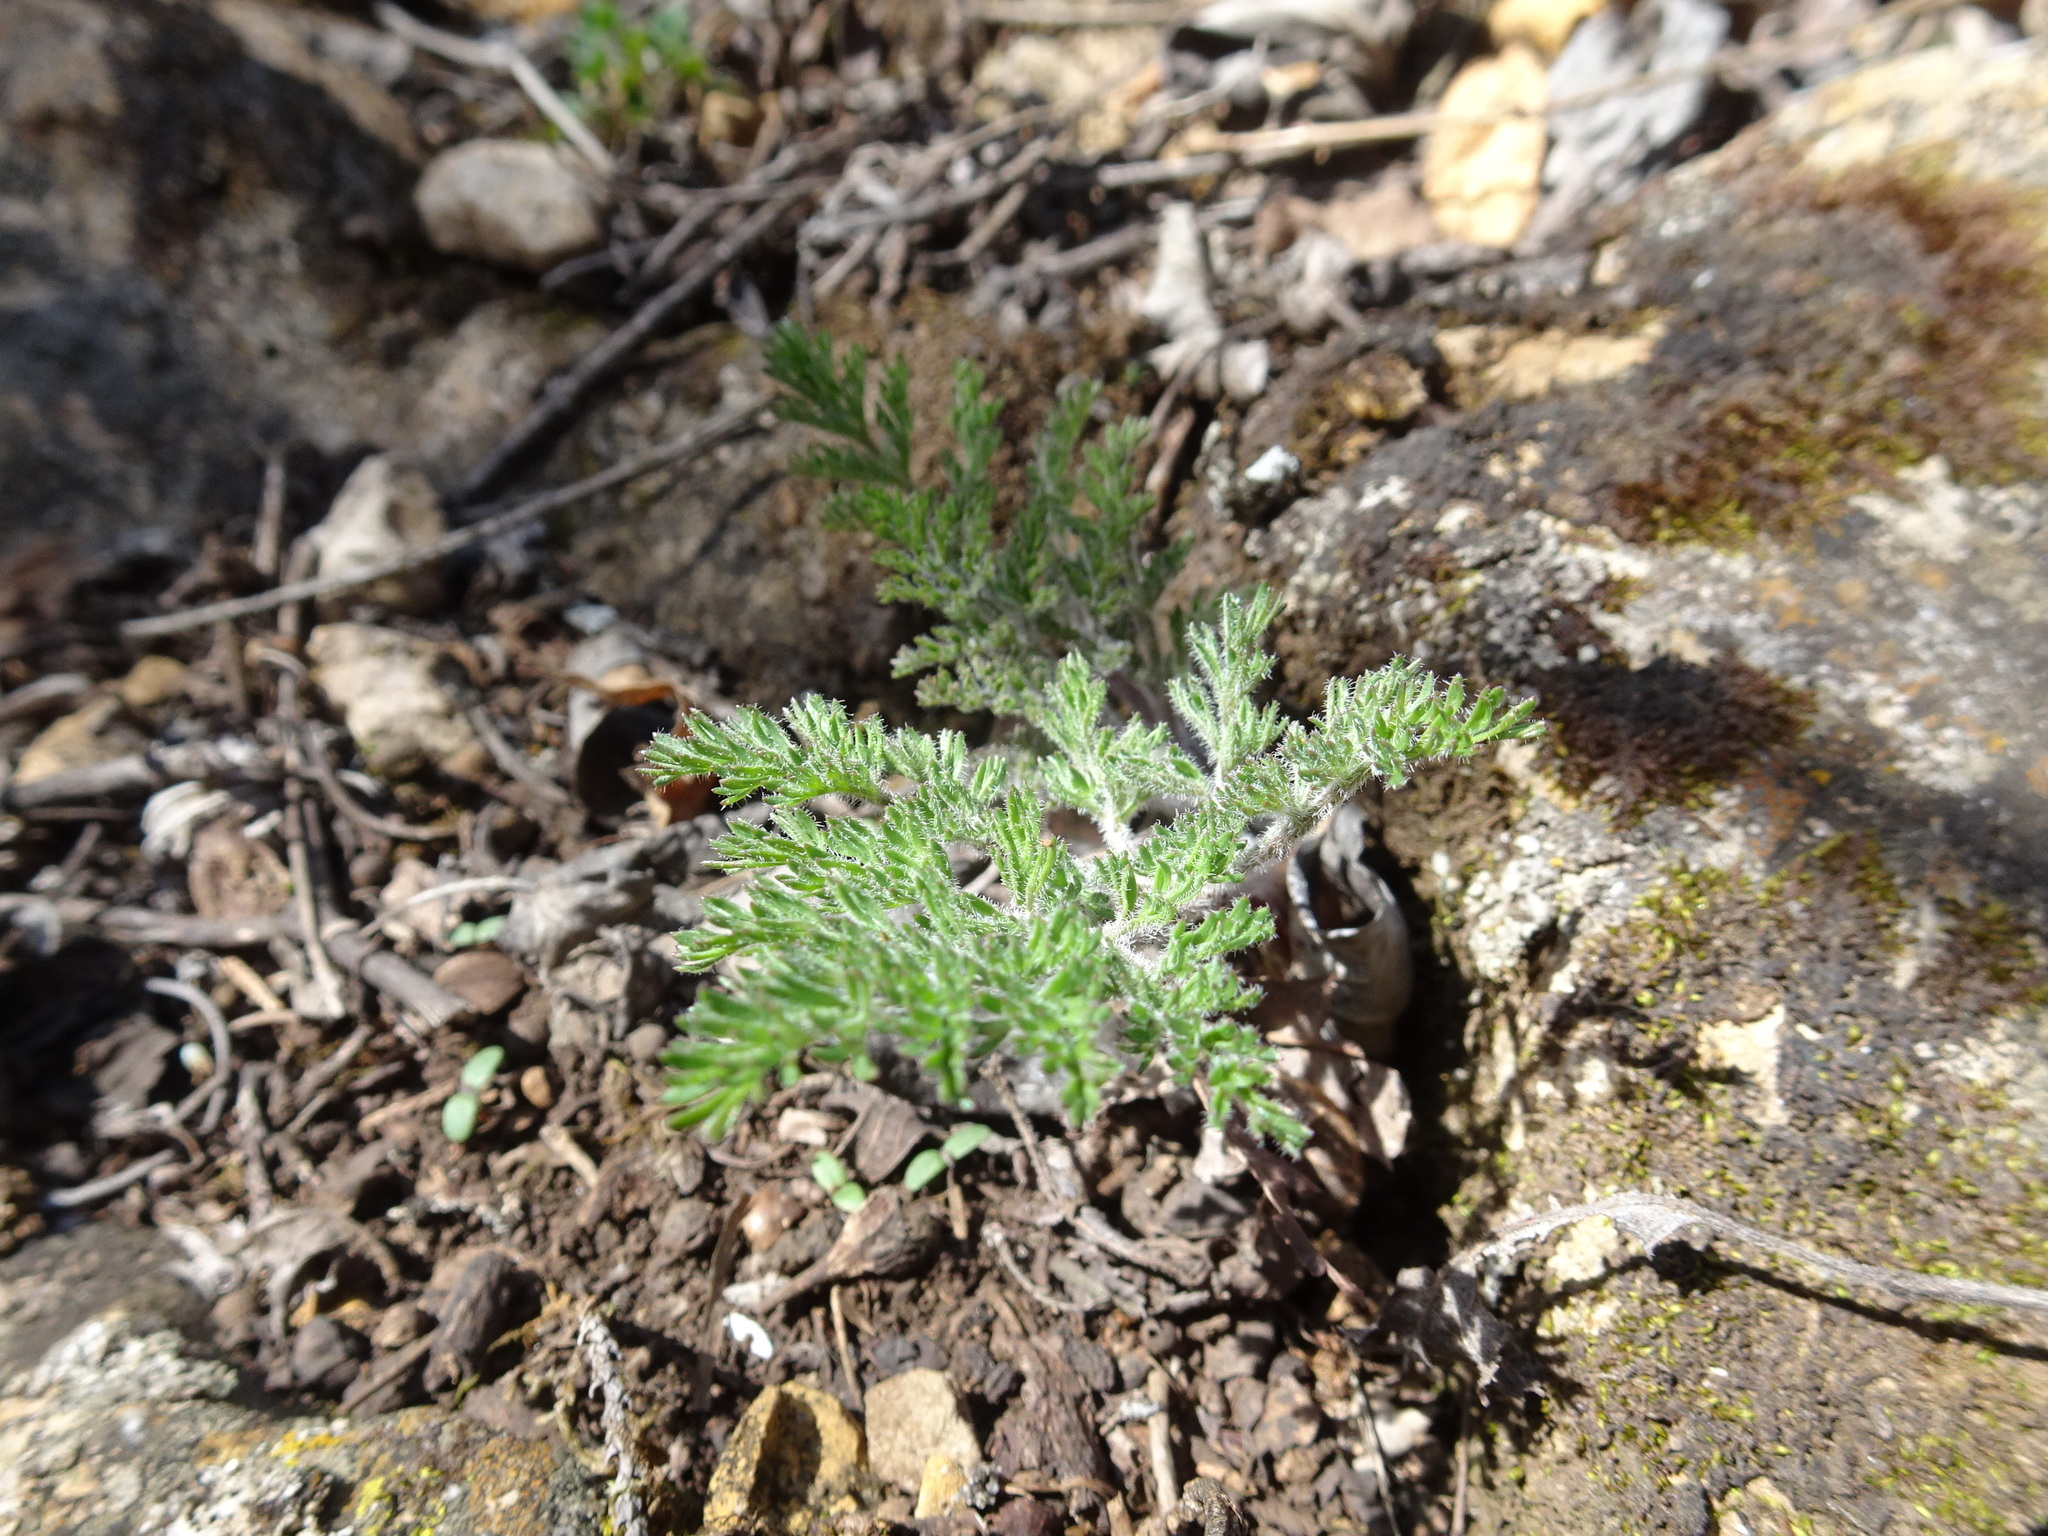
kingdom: Plantae
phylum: Tracheophyta
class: Magnoliopsida
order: Apiales
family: Apiaceae
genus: Lomatium
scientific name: Lomatium foeniculaceum
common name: Desert-parsley
